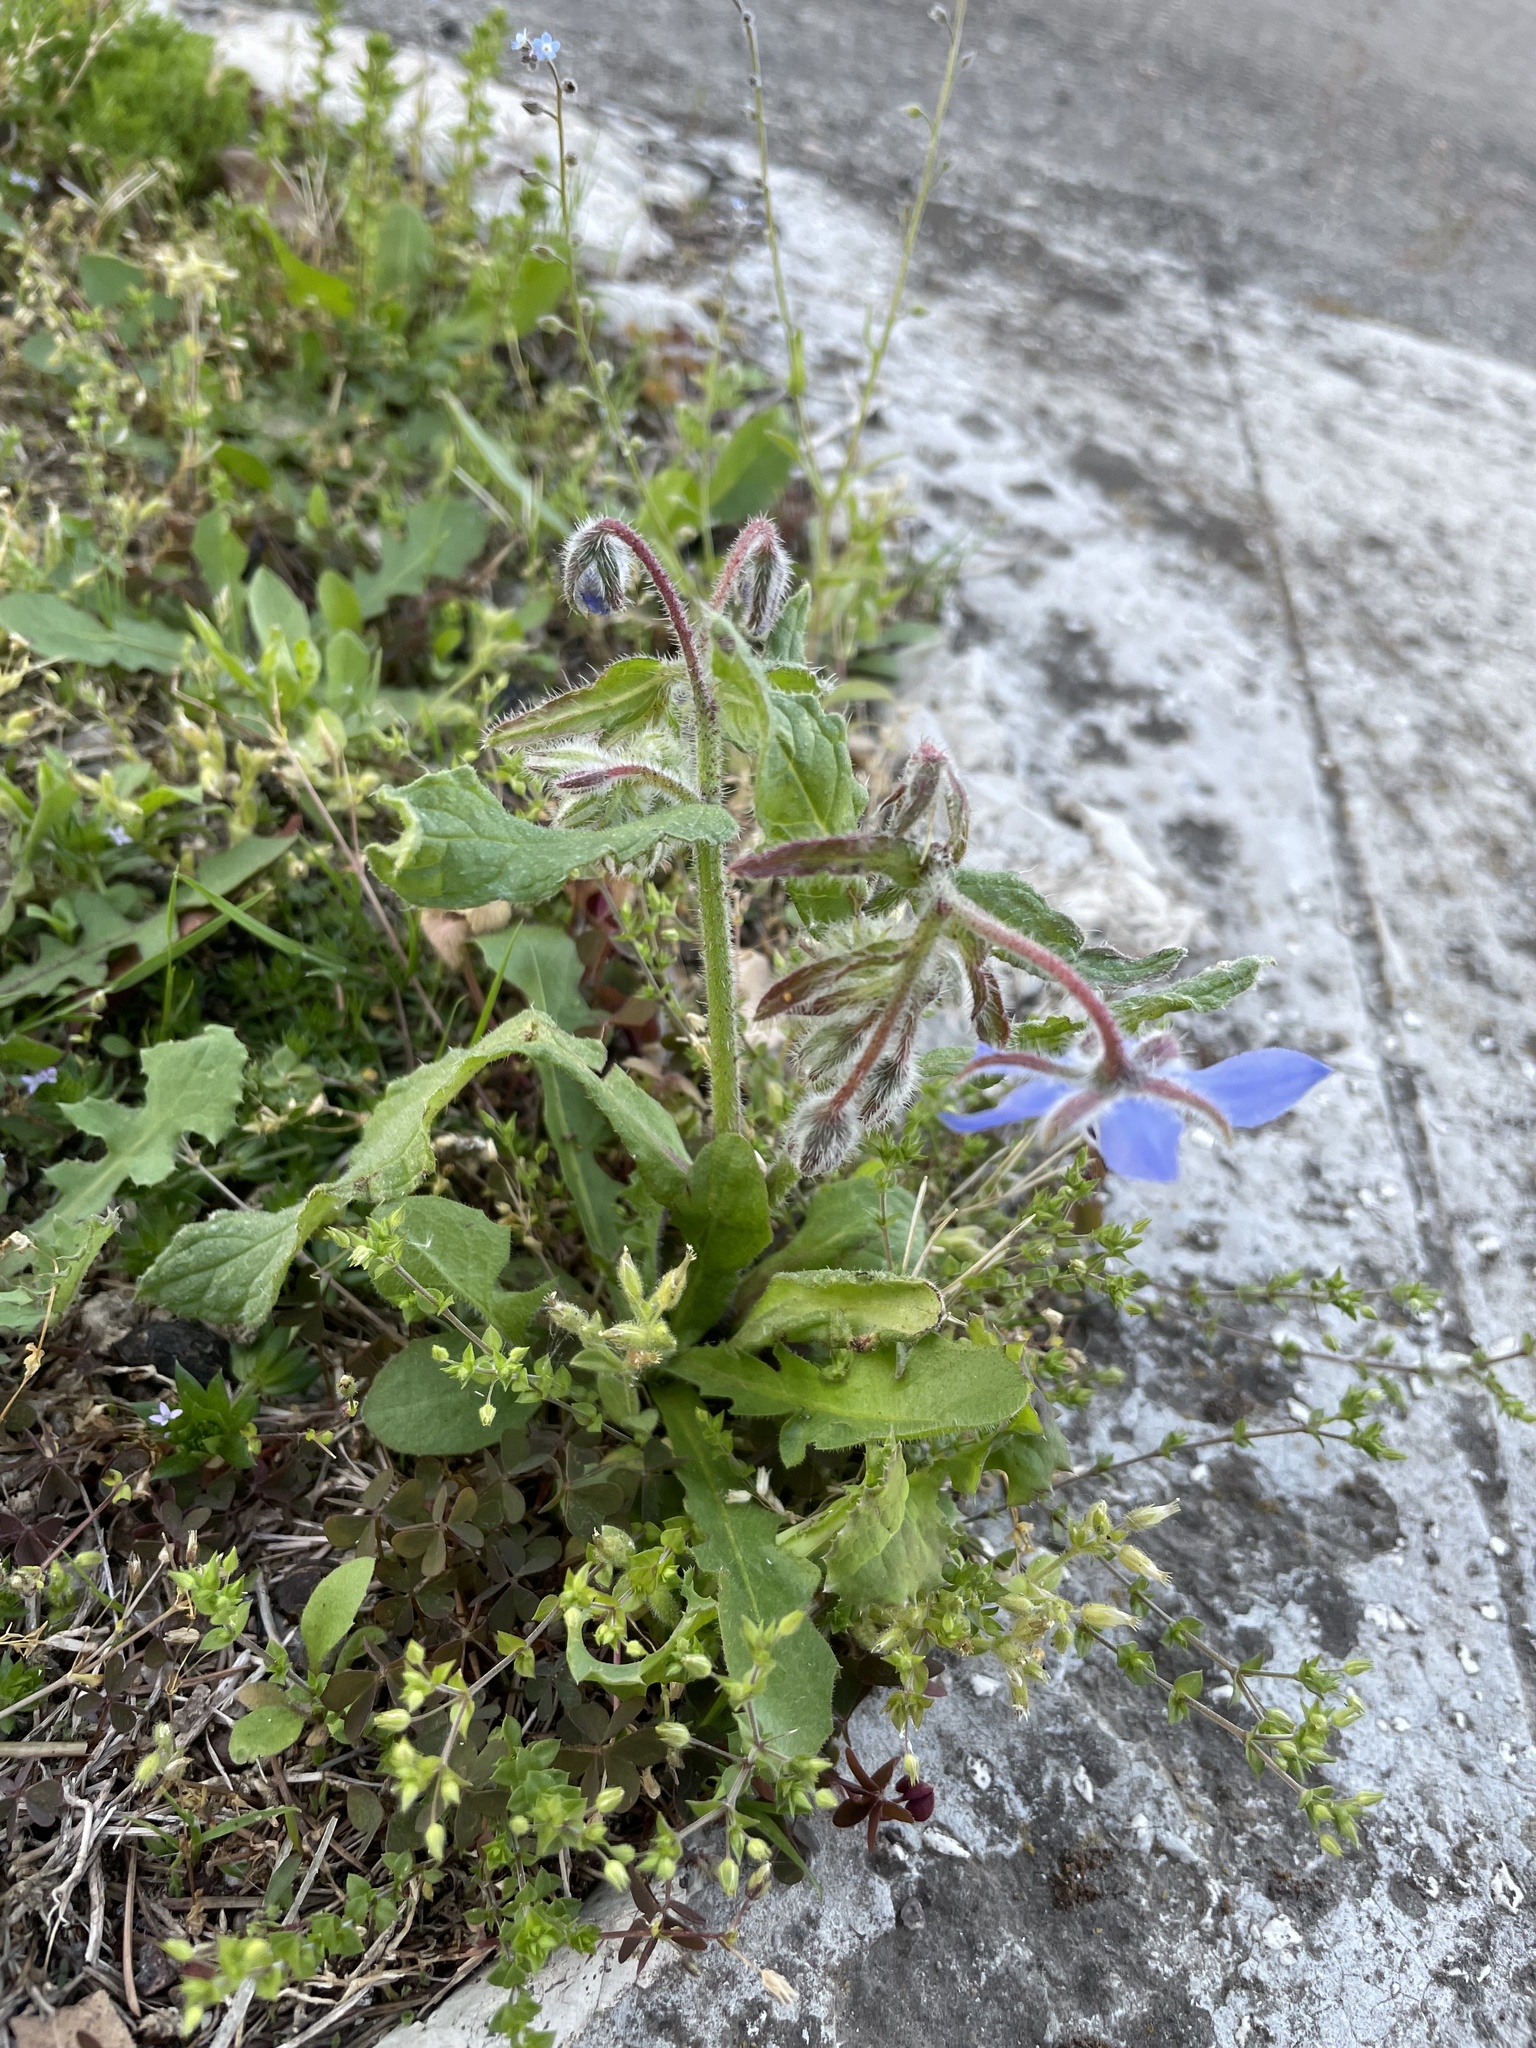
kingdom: Plantae
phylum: Tracheophyta
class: Magnoliopsida
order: Boraginales
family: Boraginaceae
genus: Borago
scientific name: Borago officinalis
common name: Borage
